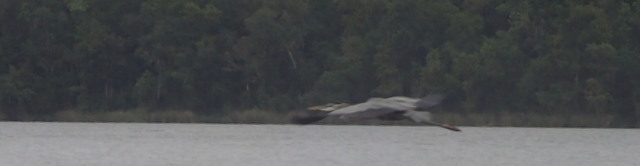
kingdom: Animalia
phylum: Chordata
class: Aves
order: Pelecaniformes
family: Ardeidae
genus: Ardea
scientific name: Ardea herodias
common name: Great blue heron
